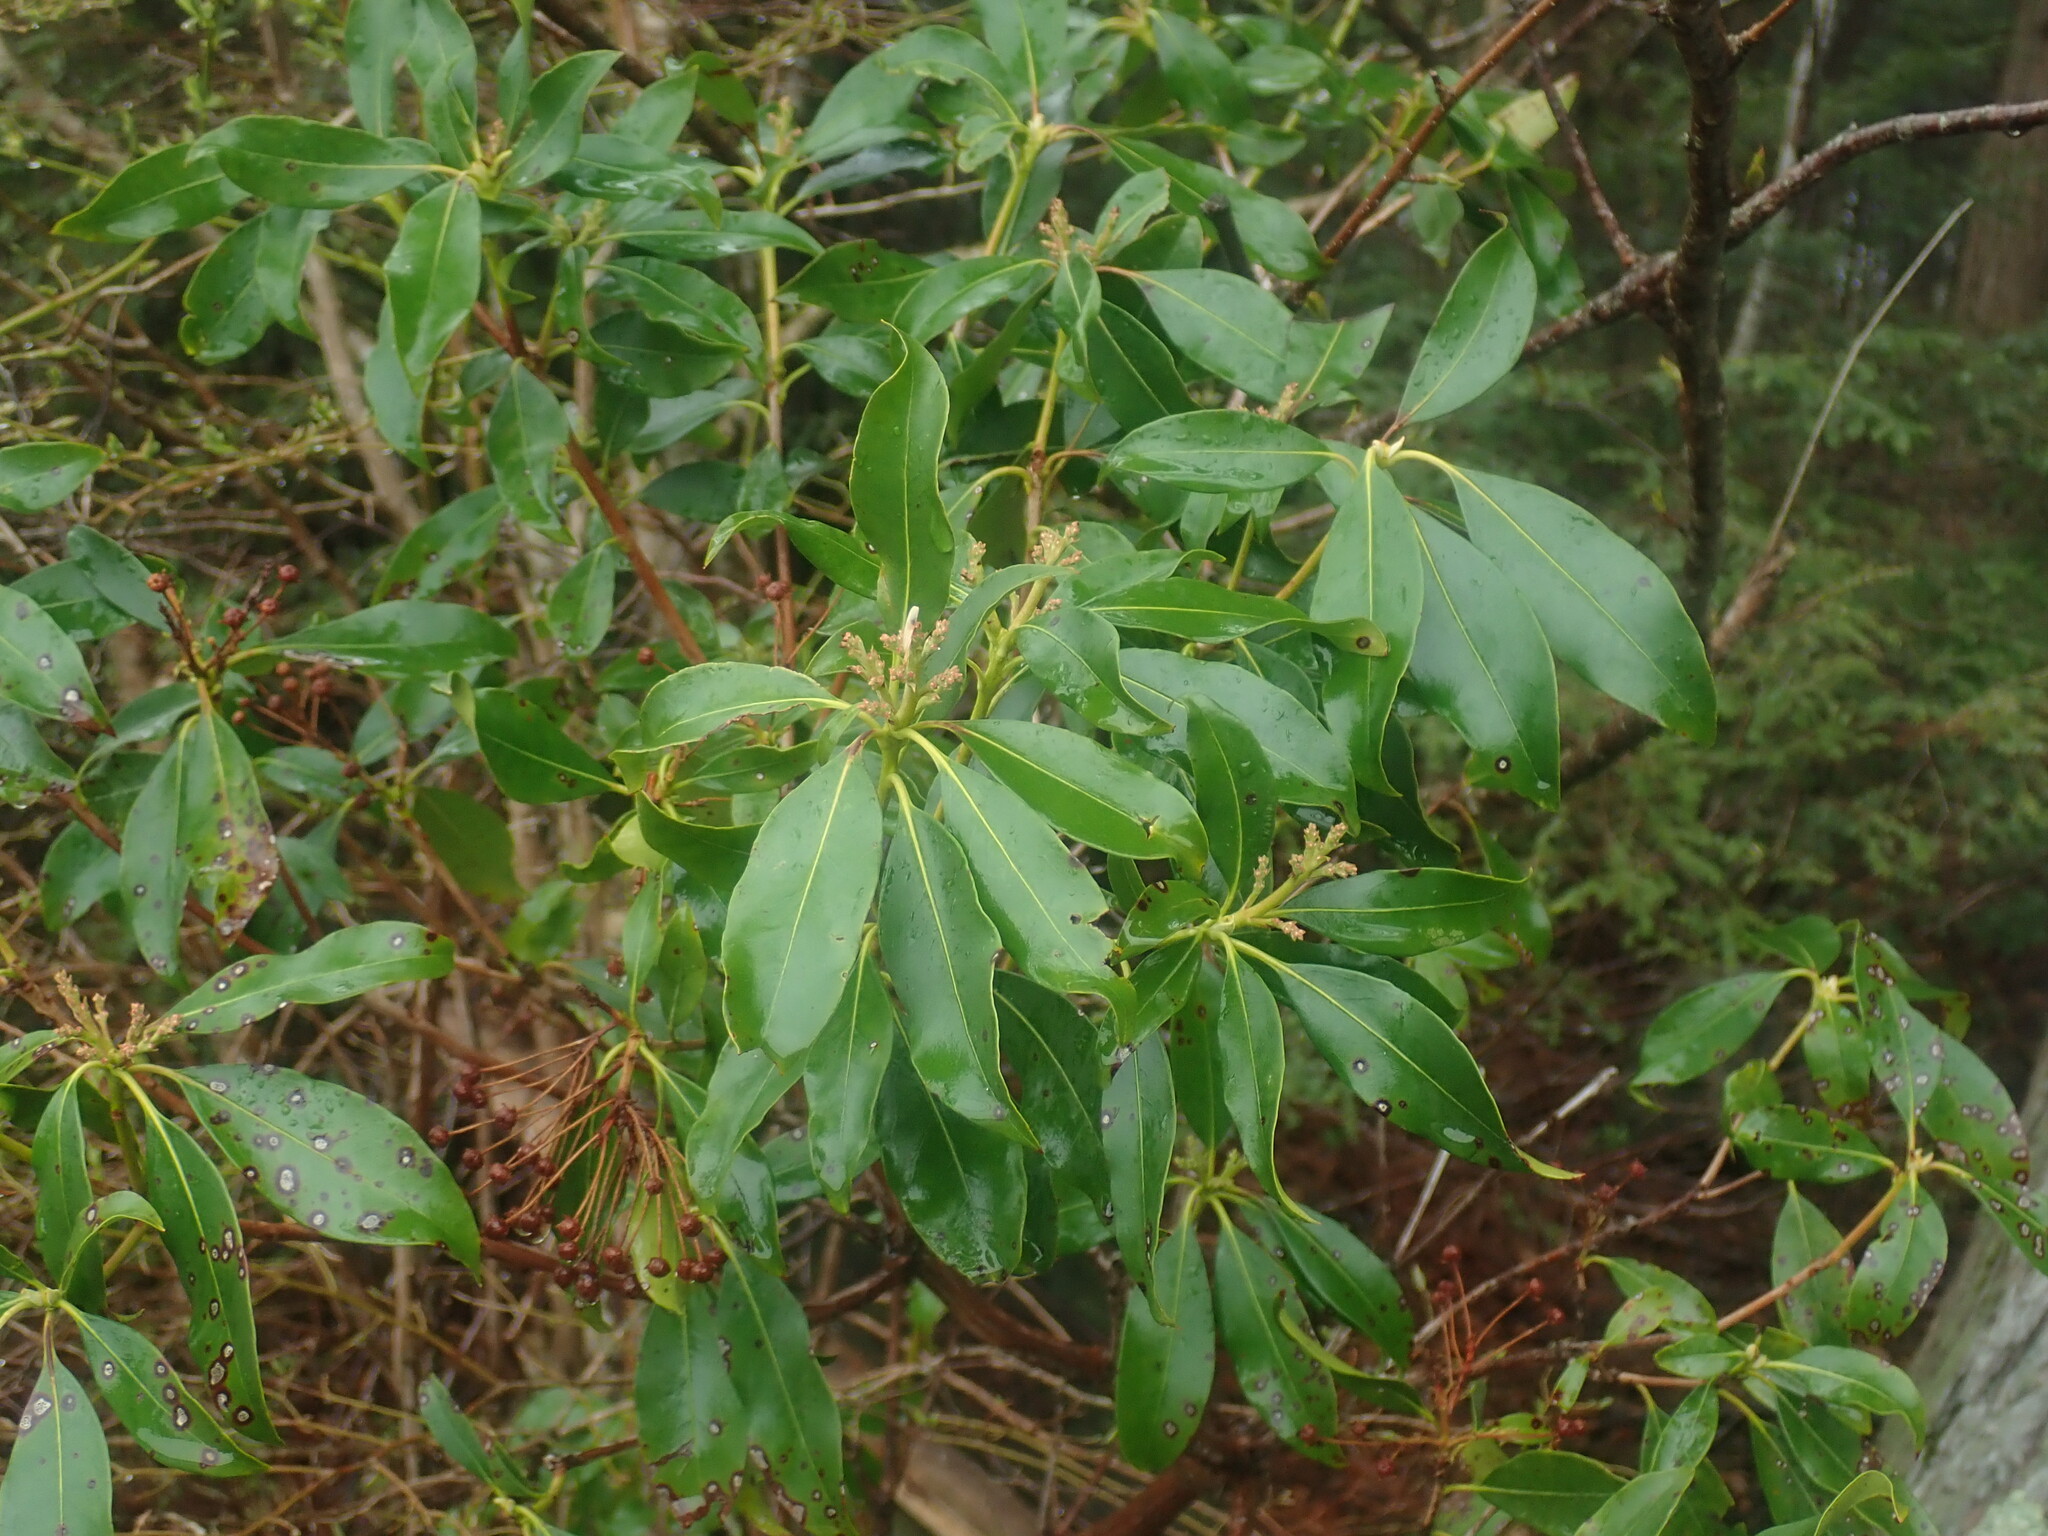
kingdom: Plantae
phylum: Tracheophyta
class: Magnoliopsida
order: Ericales
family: Ericaceae
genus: Kalmia
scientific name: Kalmia latifolia
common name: Mountain-laurel
